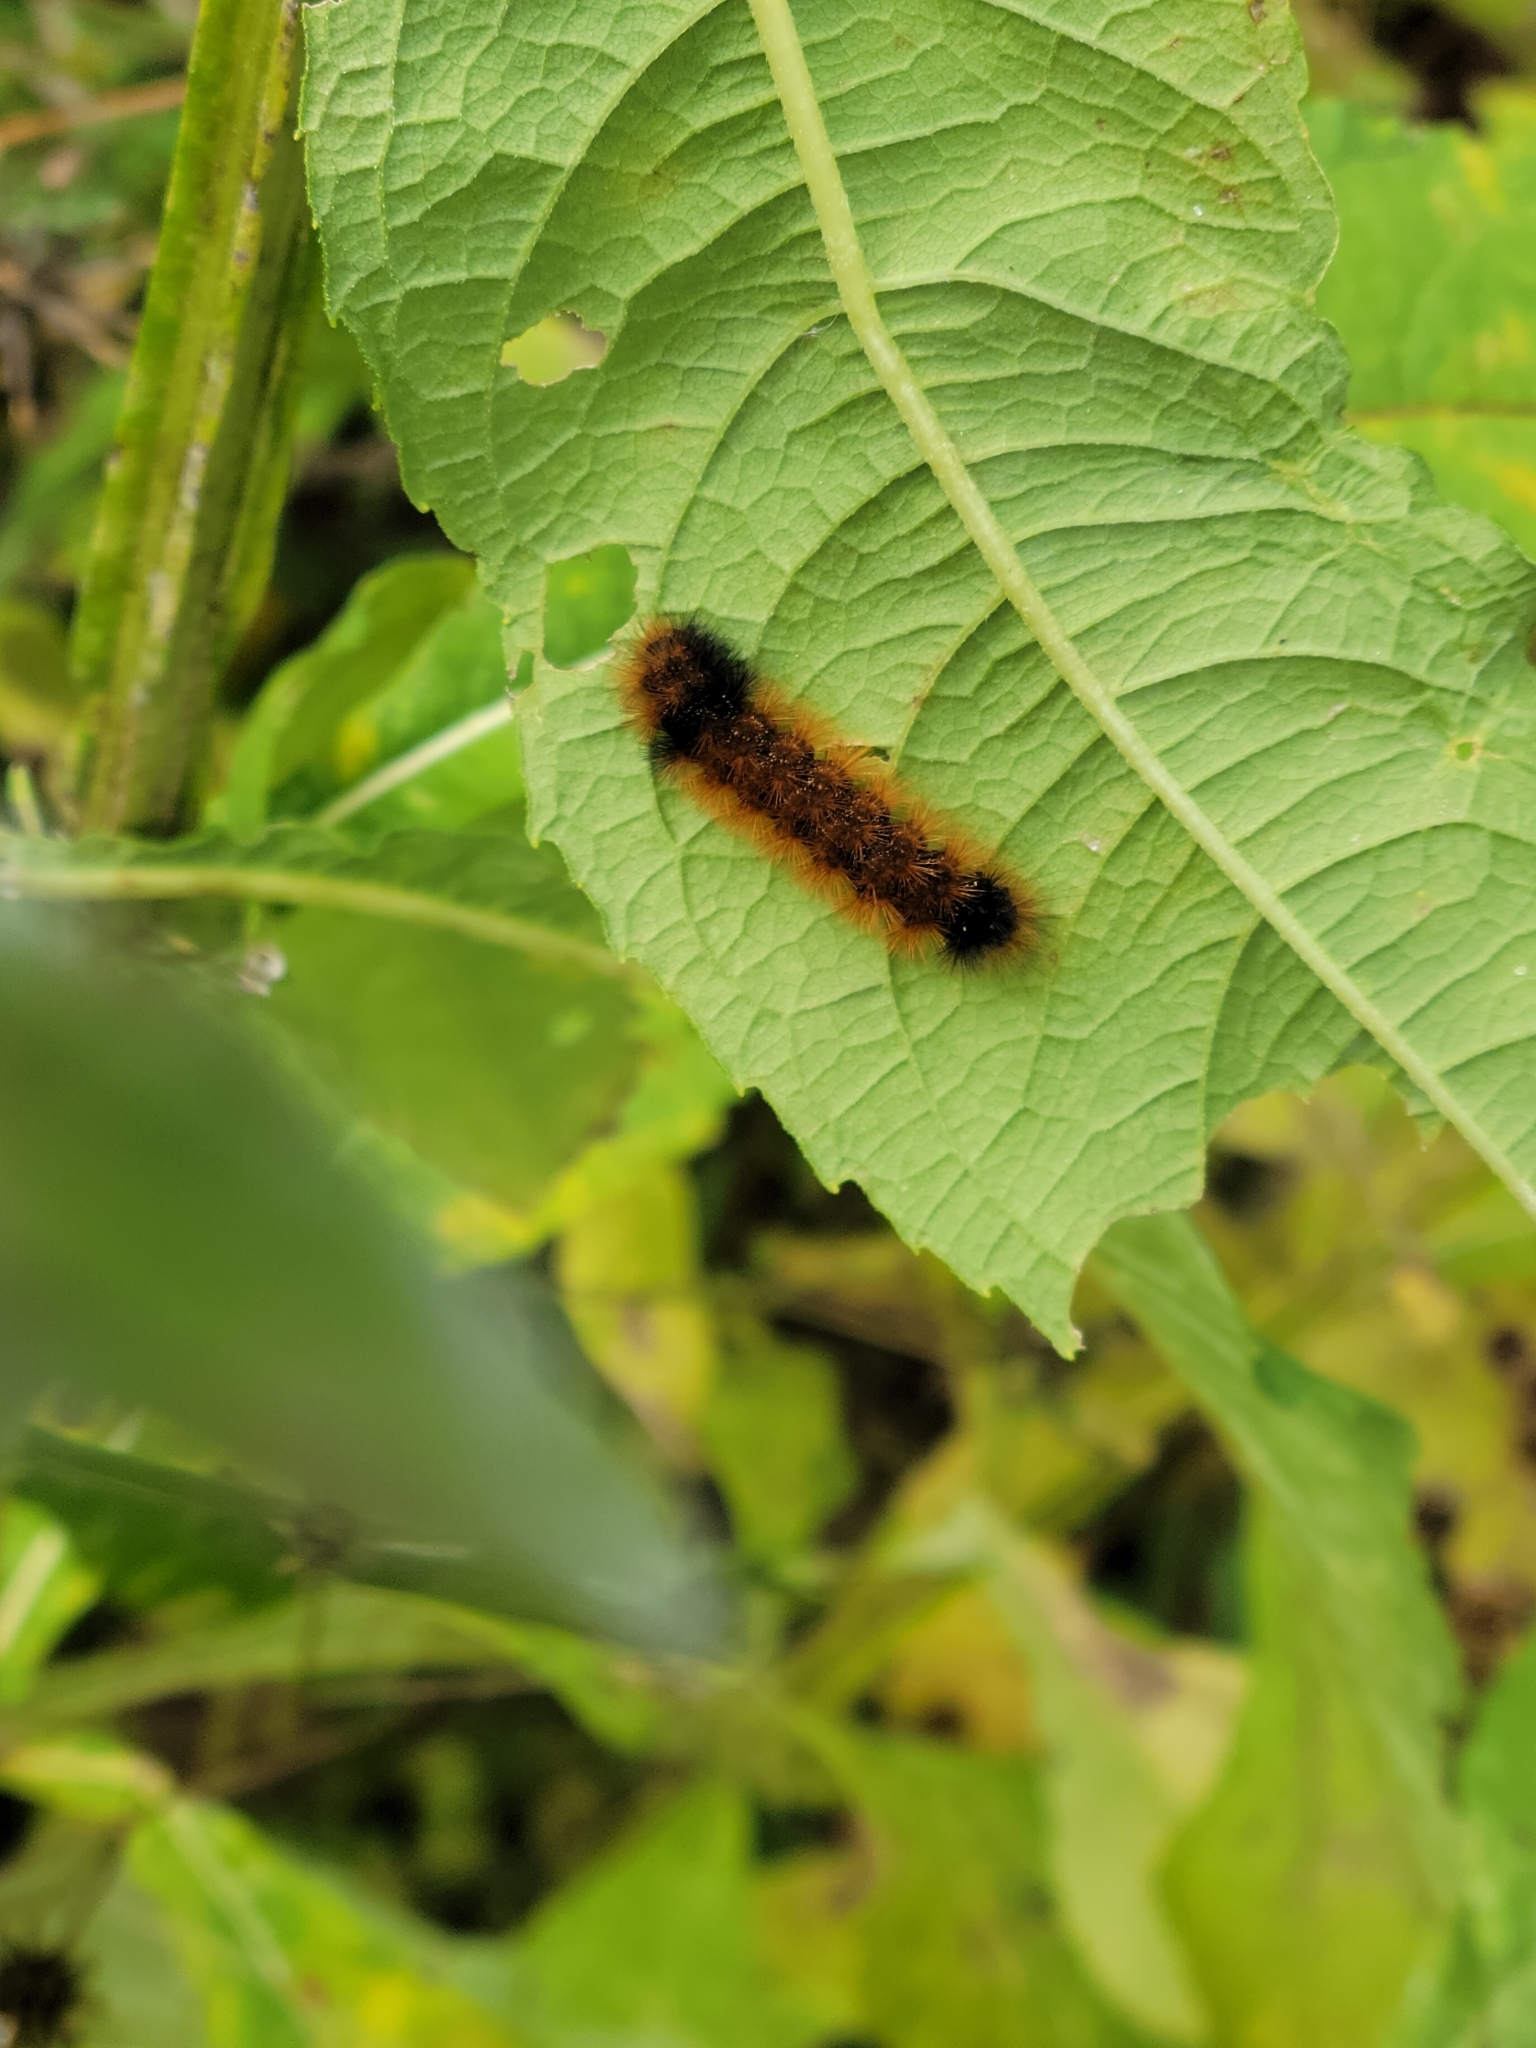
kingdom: Animalia
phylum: Arthropoda
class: Insecta
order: Lepidoptera
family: Erebidae
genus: Pyrrharctia
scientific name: Pyrrharctia isabella
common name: Isabella tiger moth
